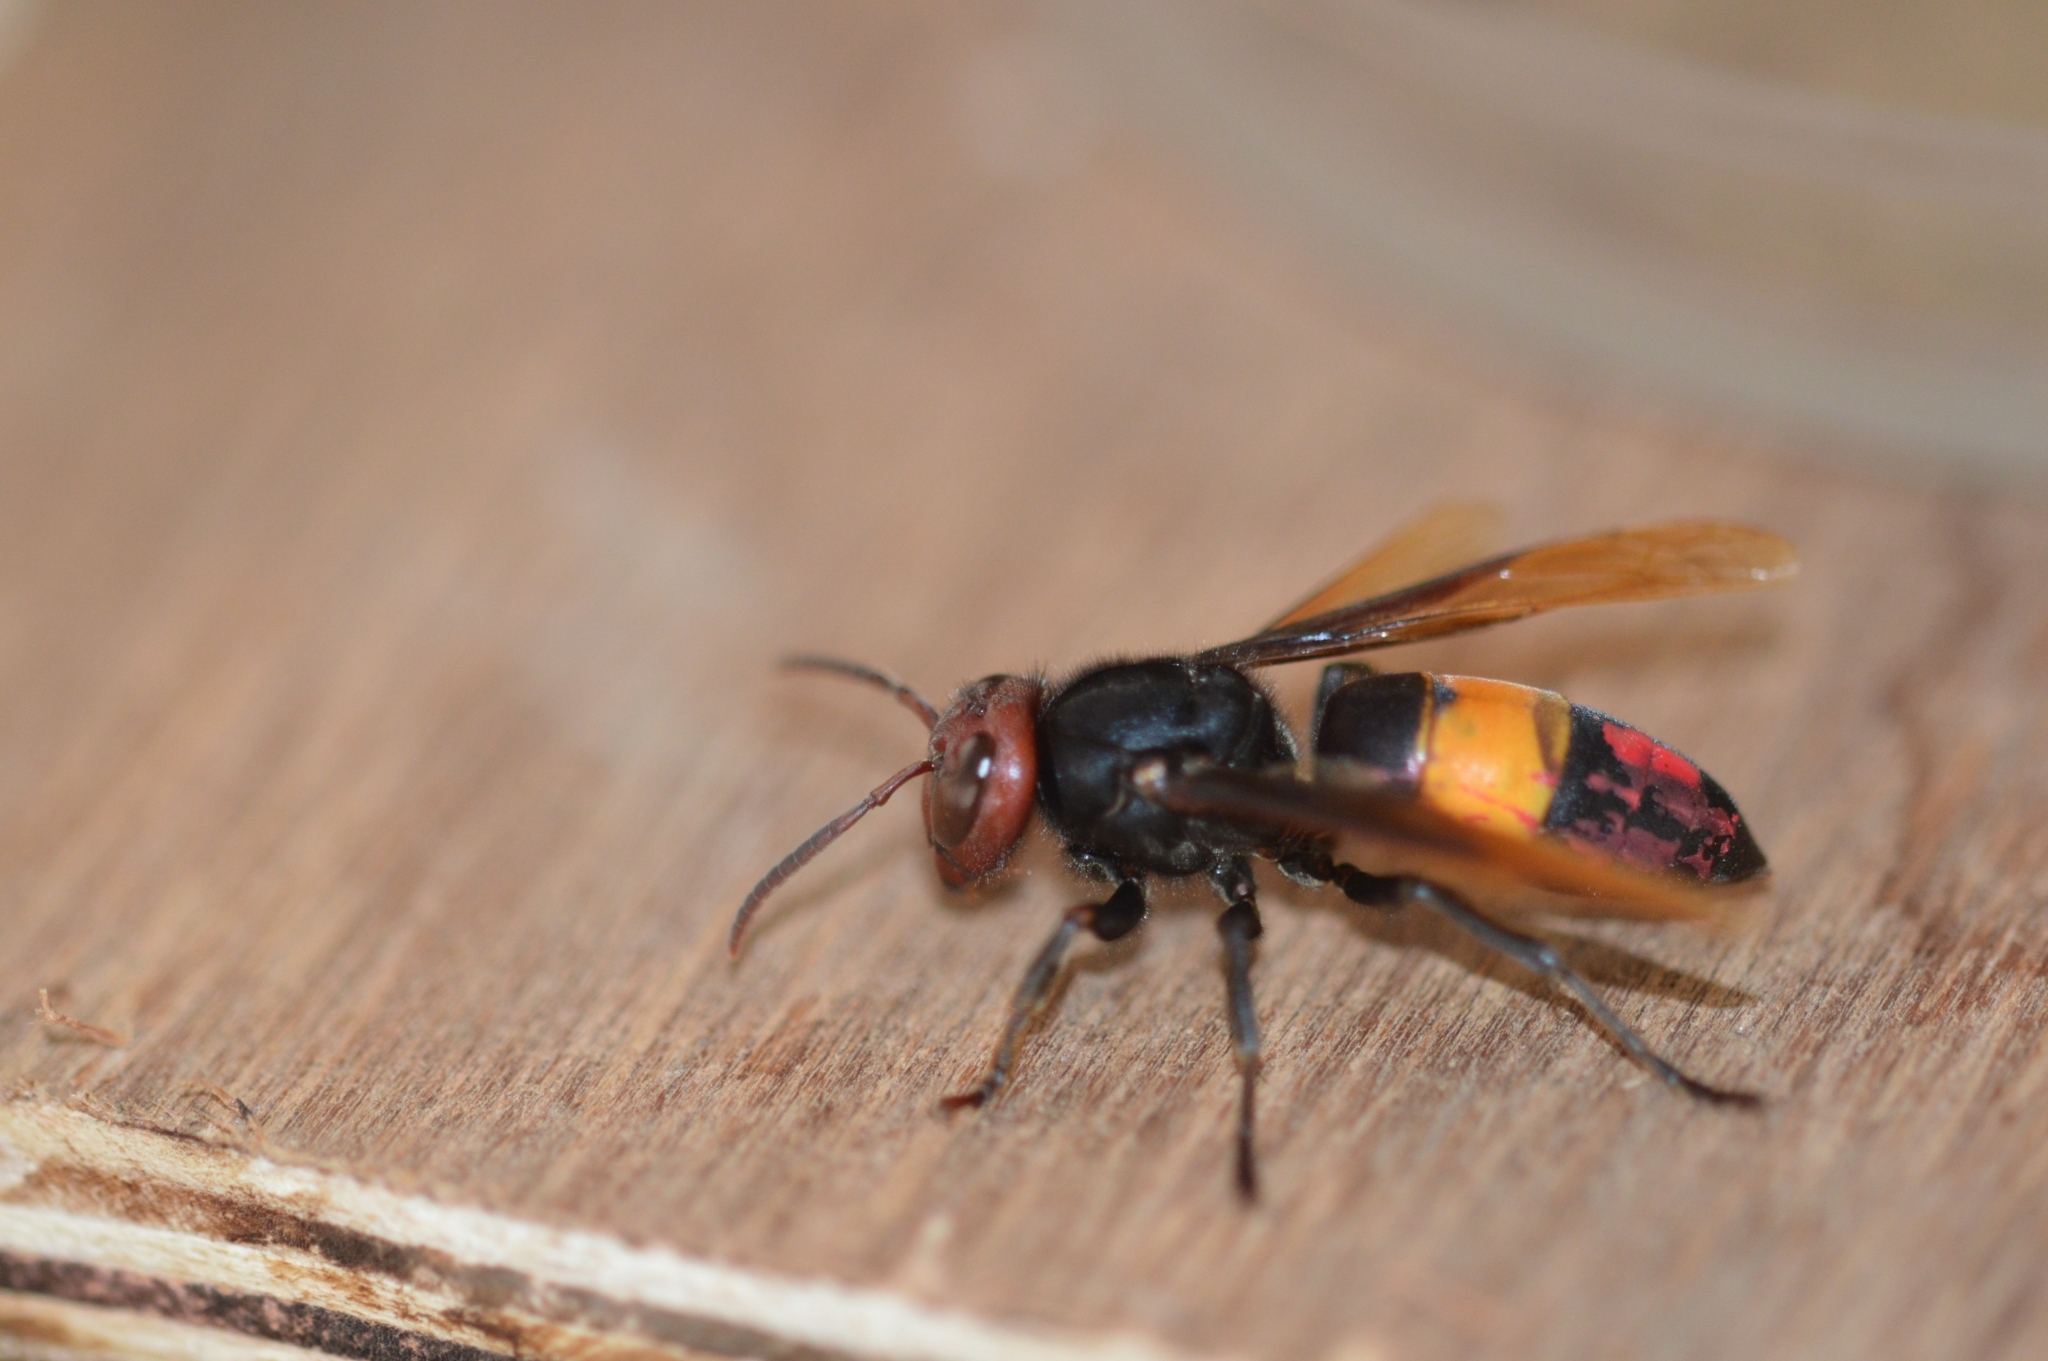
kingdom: Animalia
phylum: Arthropoda
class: Insecta
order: Hymenoptera
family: Vespidae
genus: Vespa
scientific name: Vespa tropica
